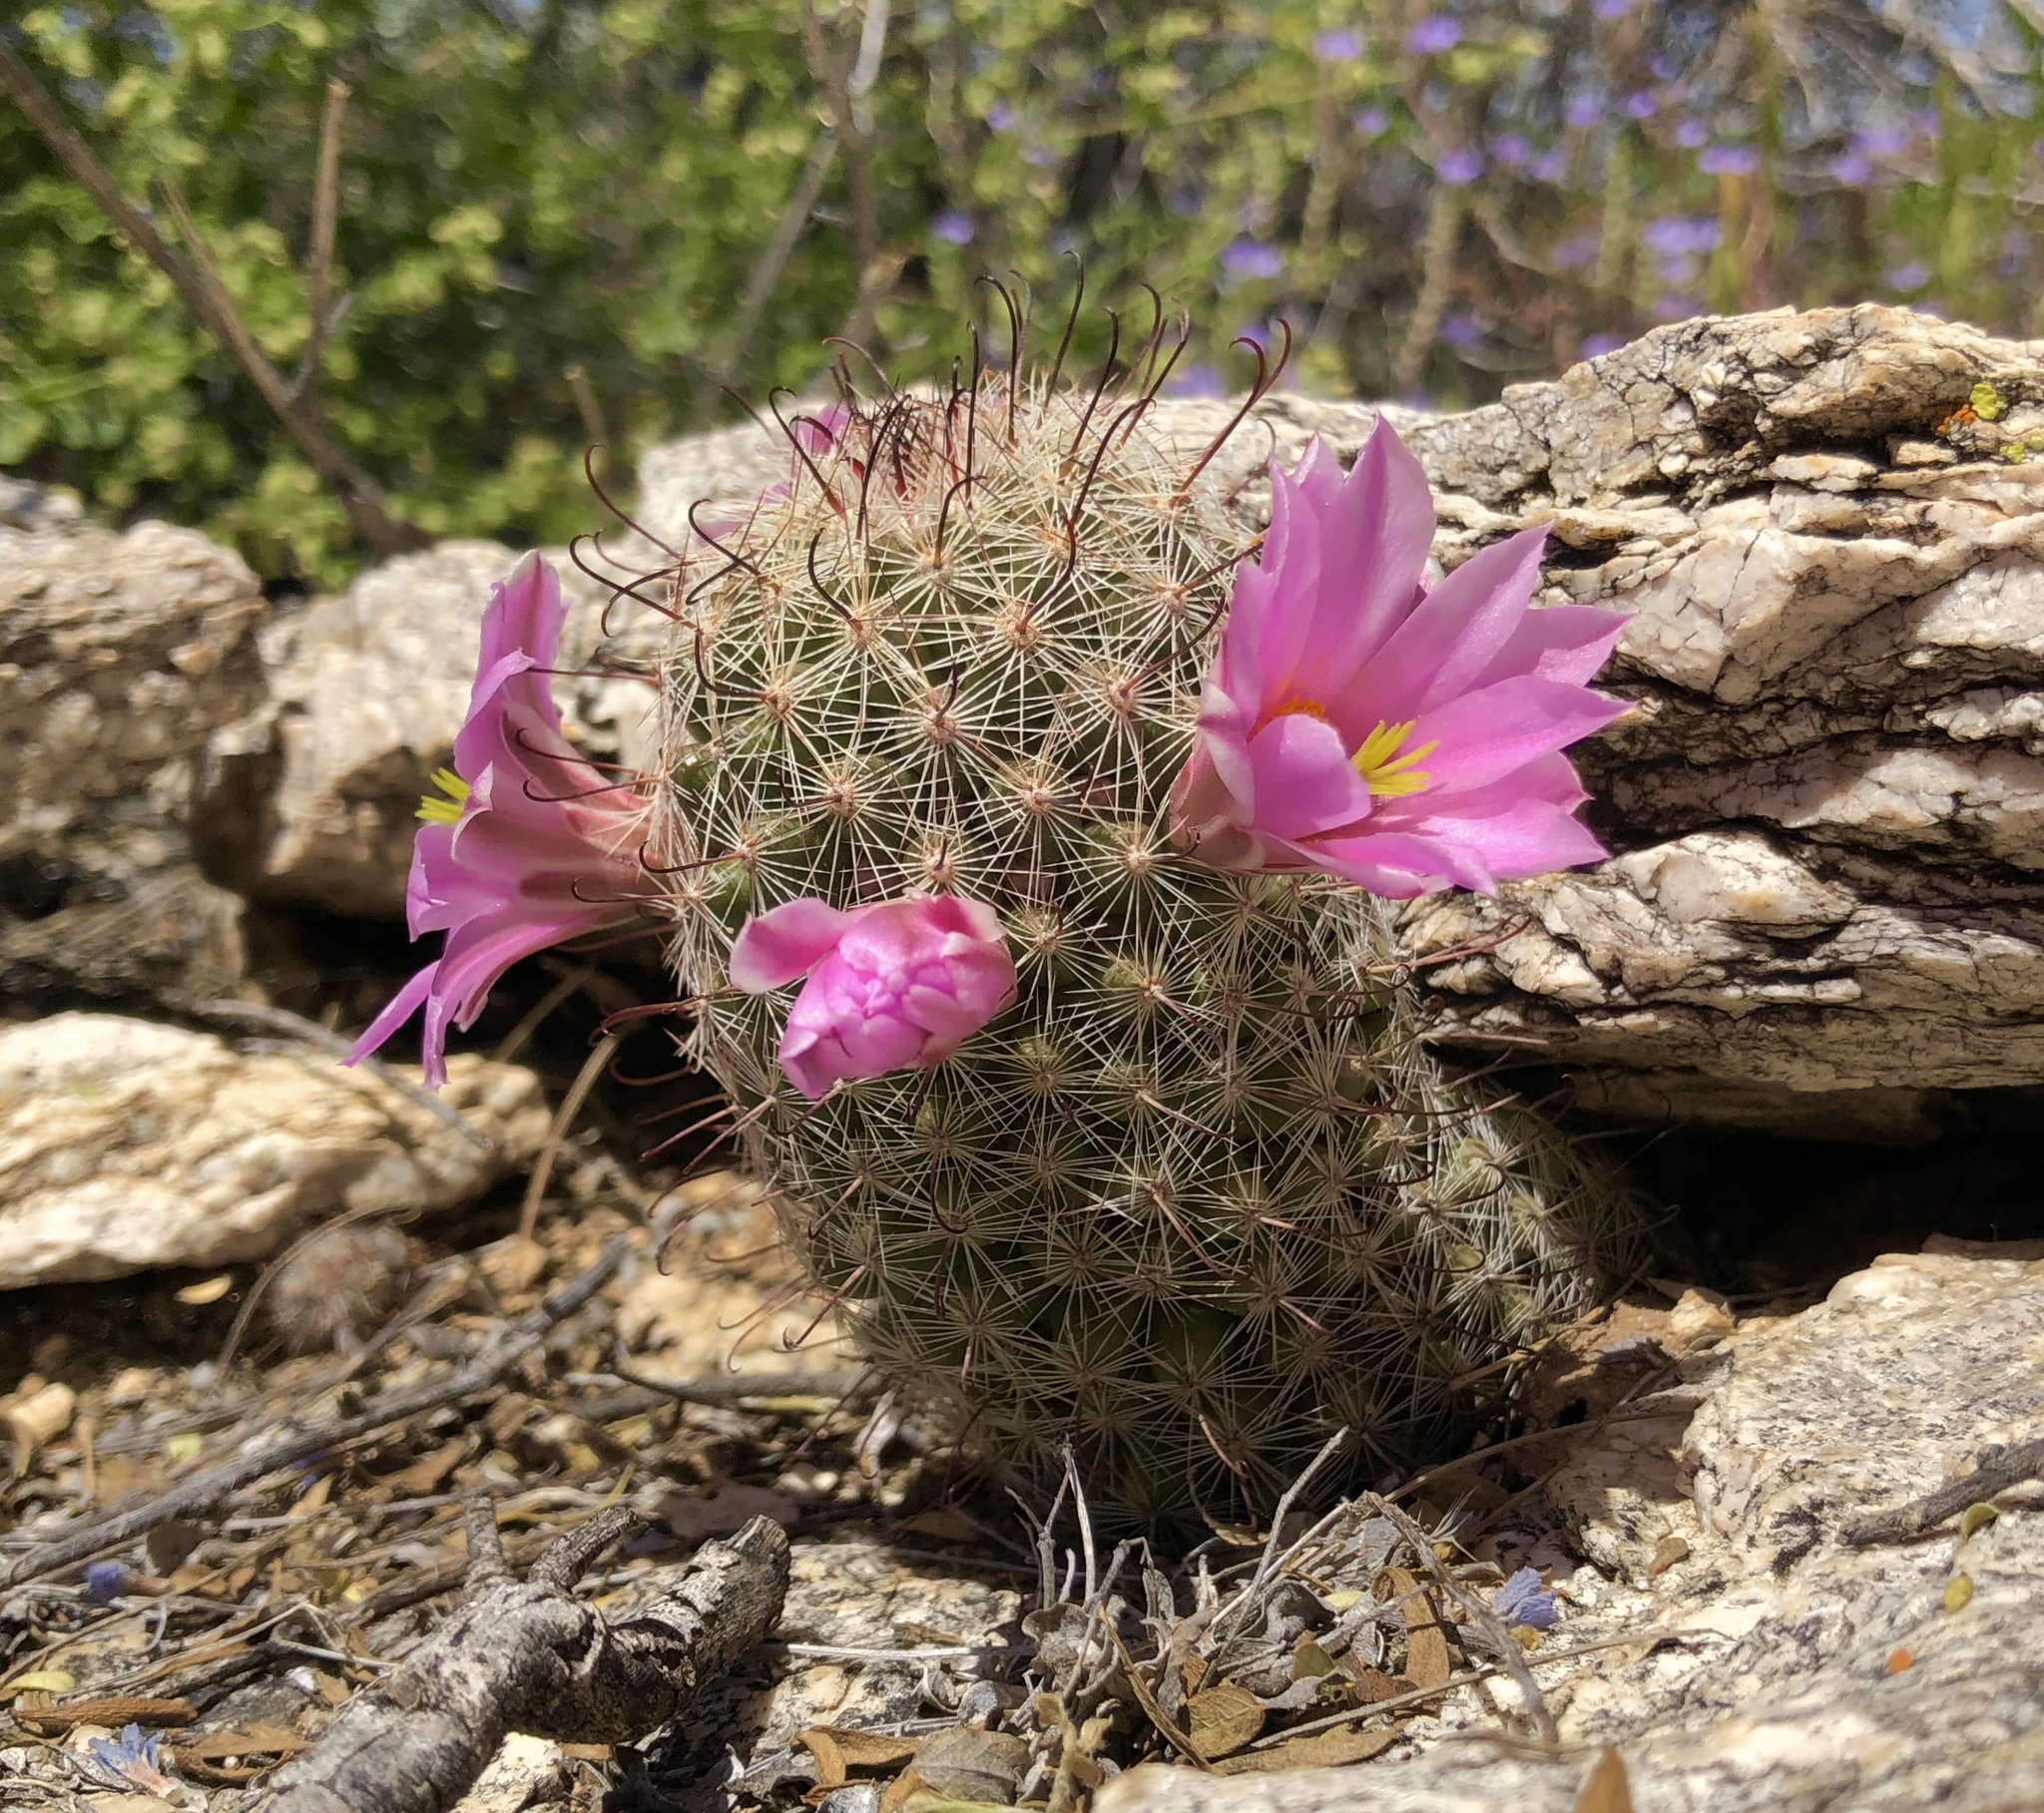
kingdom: Plantae
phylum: Tracheophyta
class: Magnoliopsida
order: Caryophyllales
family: Cactaceae
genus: Cochemiea
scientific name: Cochemiea grahamii
